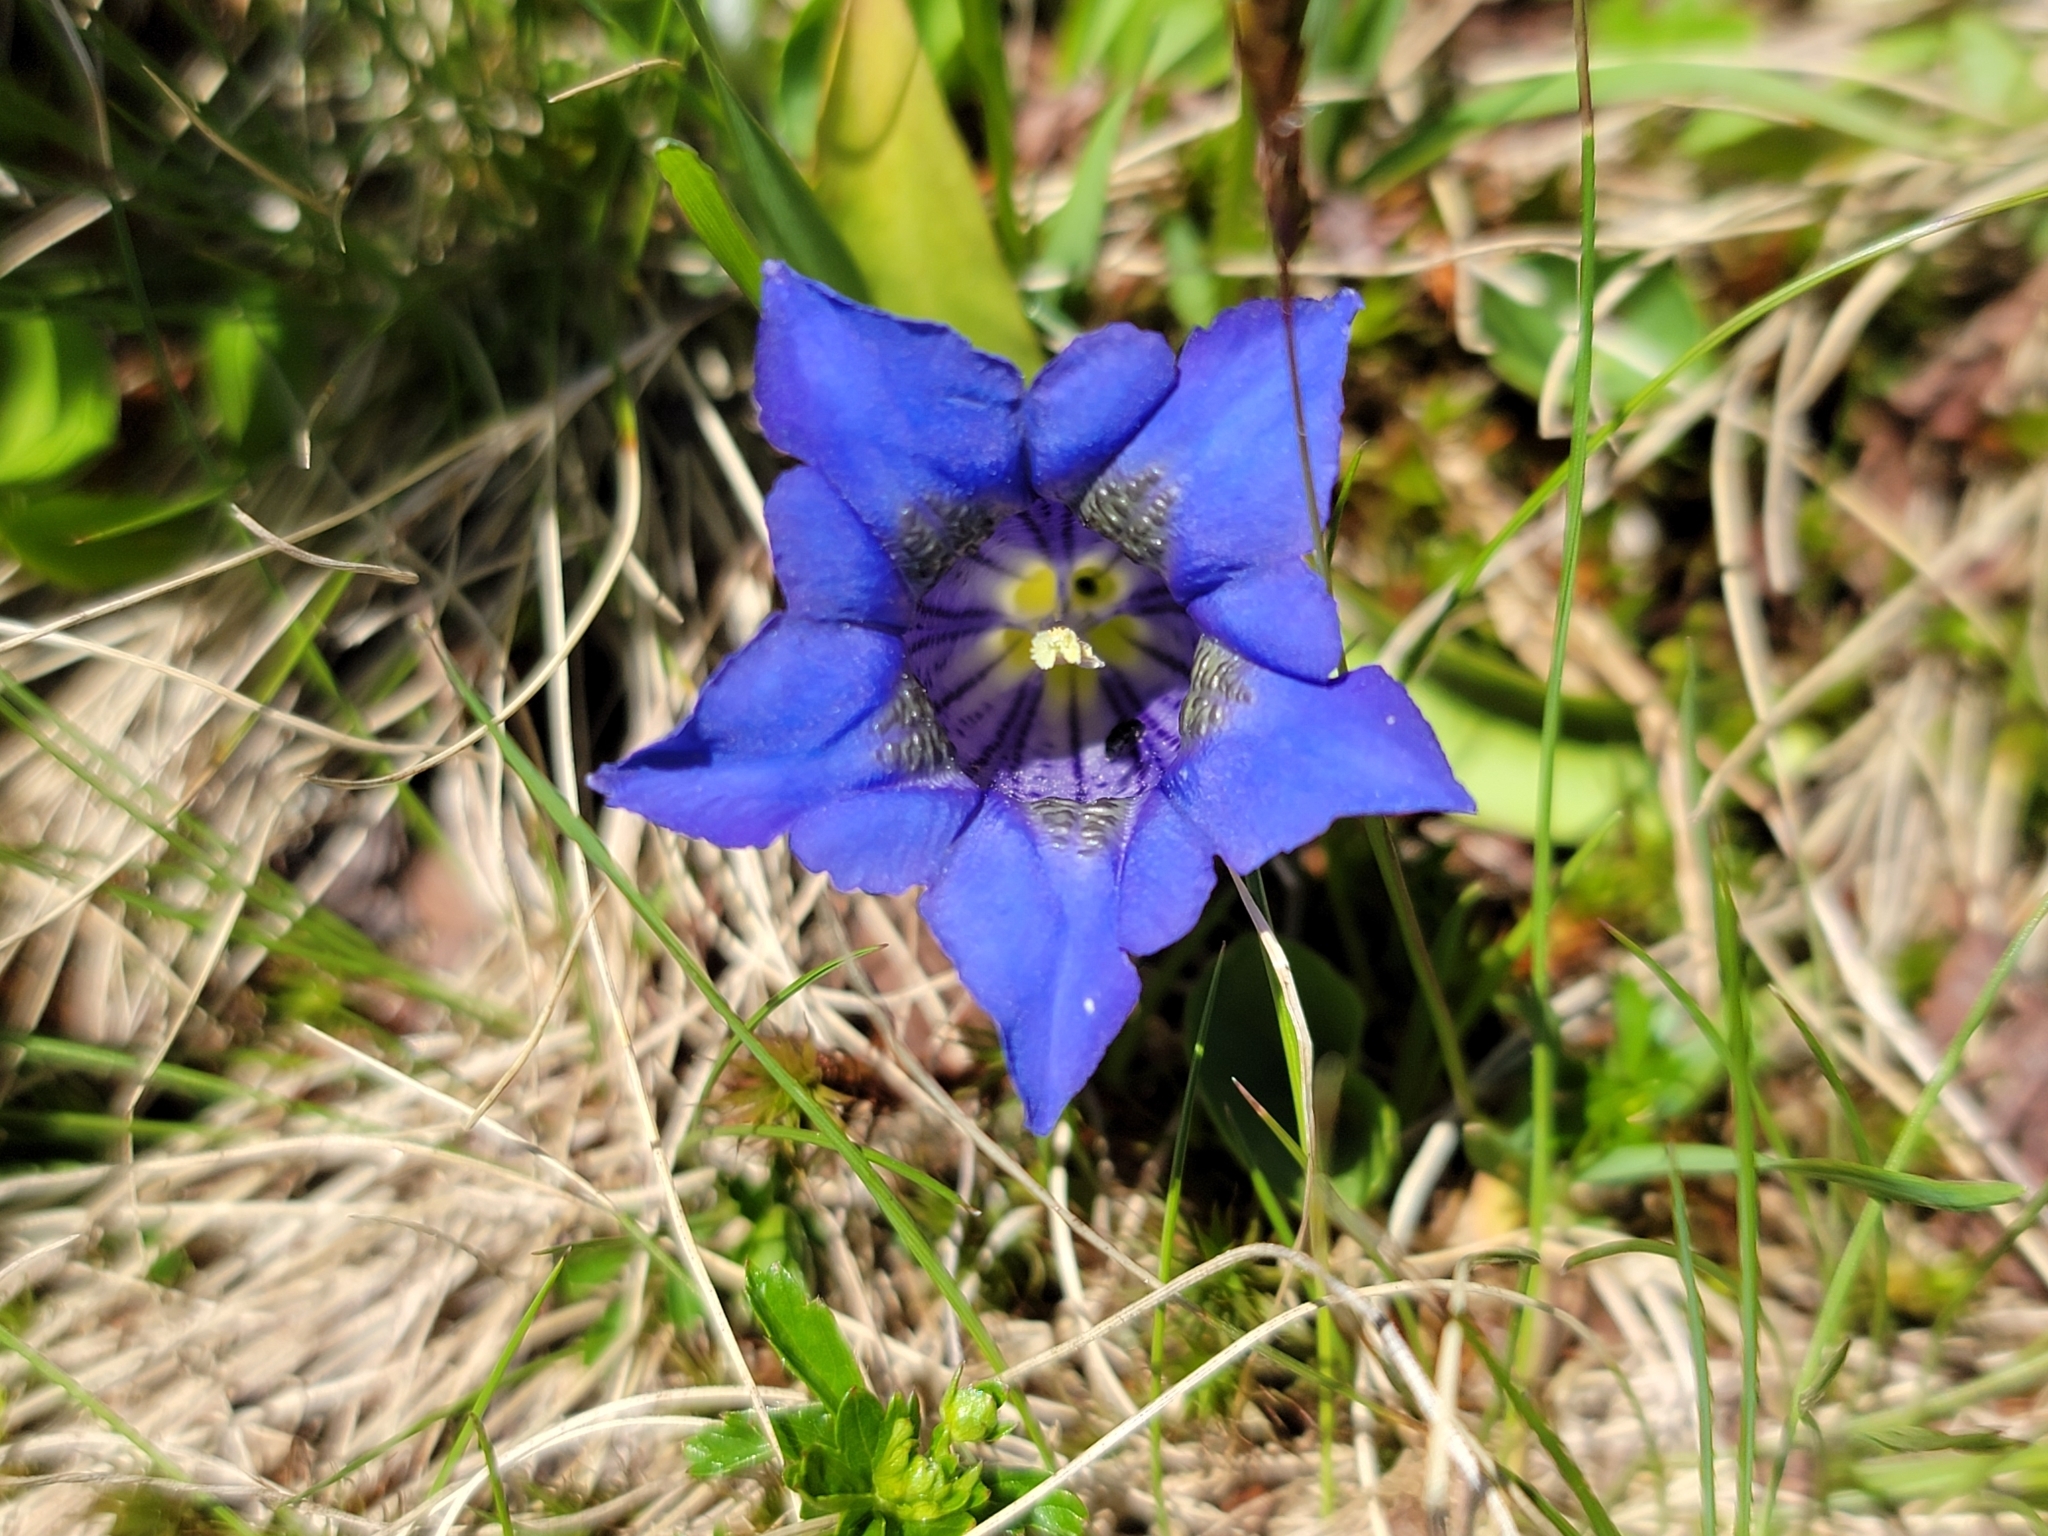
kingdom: Plantae
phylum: Tracheophyta
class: Magnoliopsida
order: Gentianales
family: Gentianaceae
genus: Gentiana
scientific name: Gentiana acaulis
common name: Trumpet gentian
